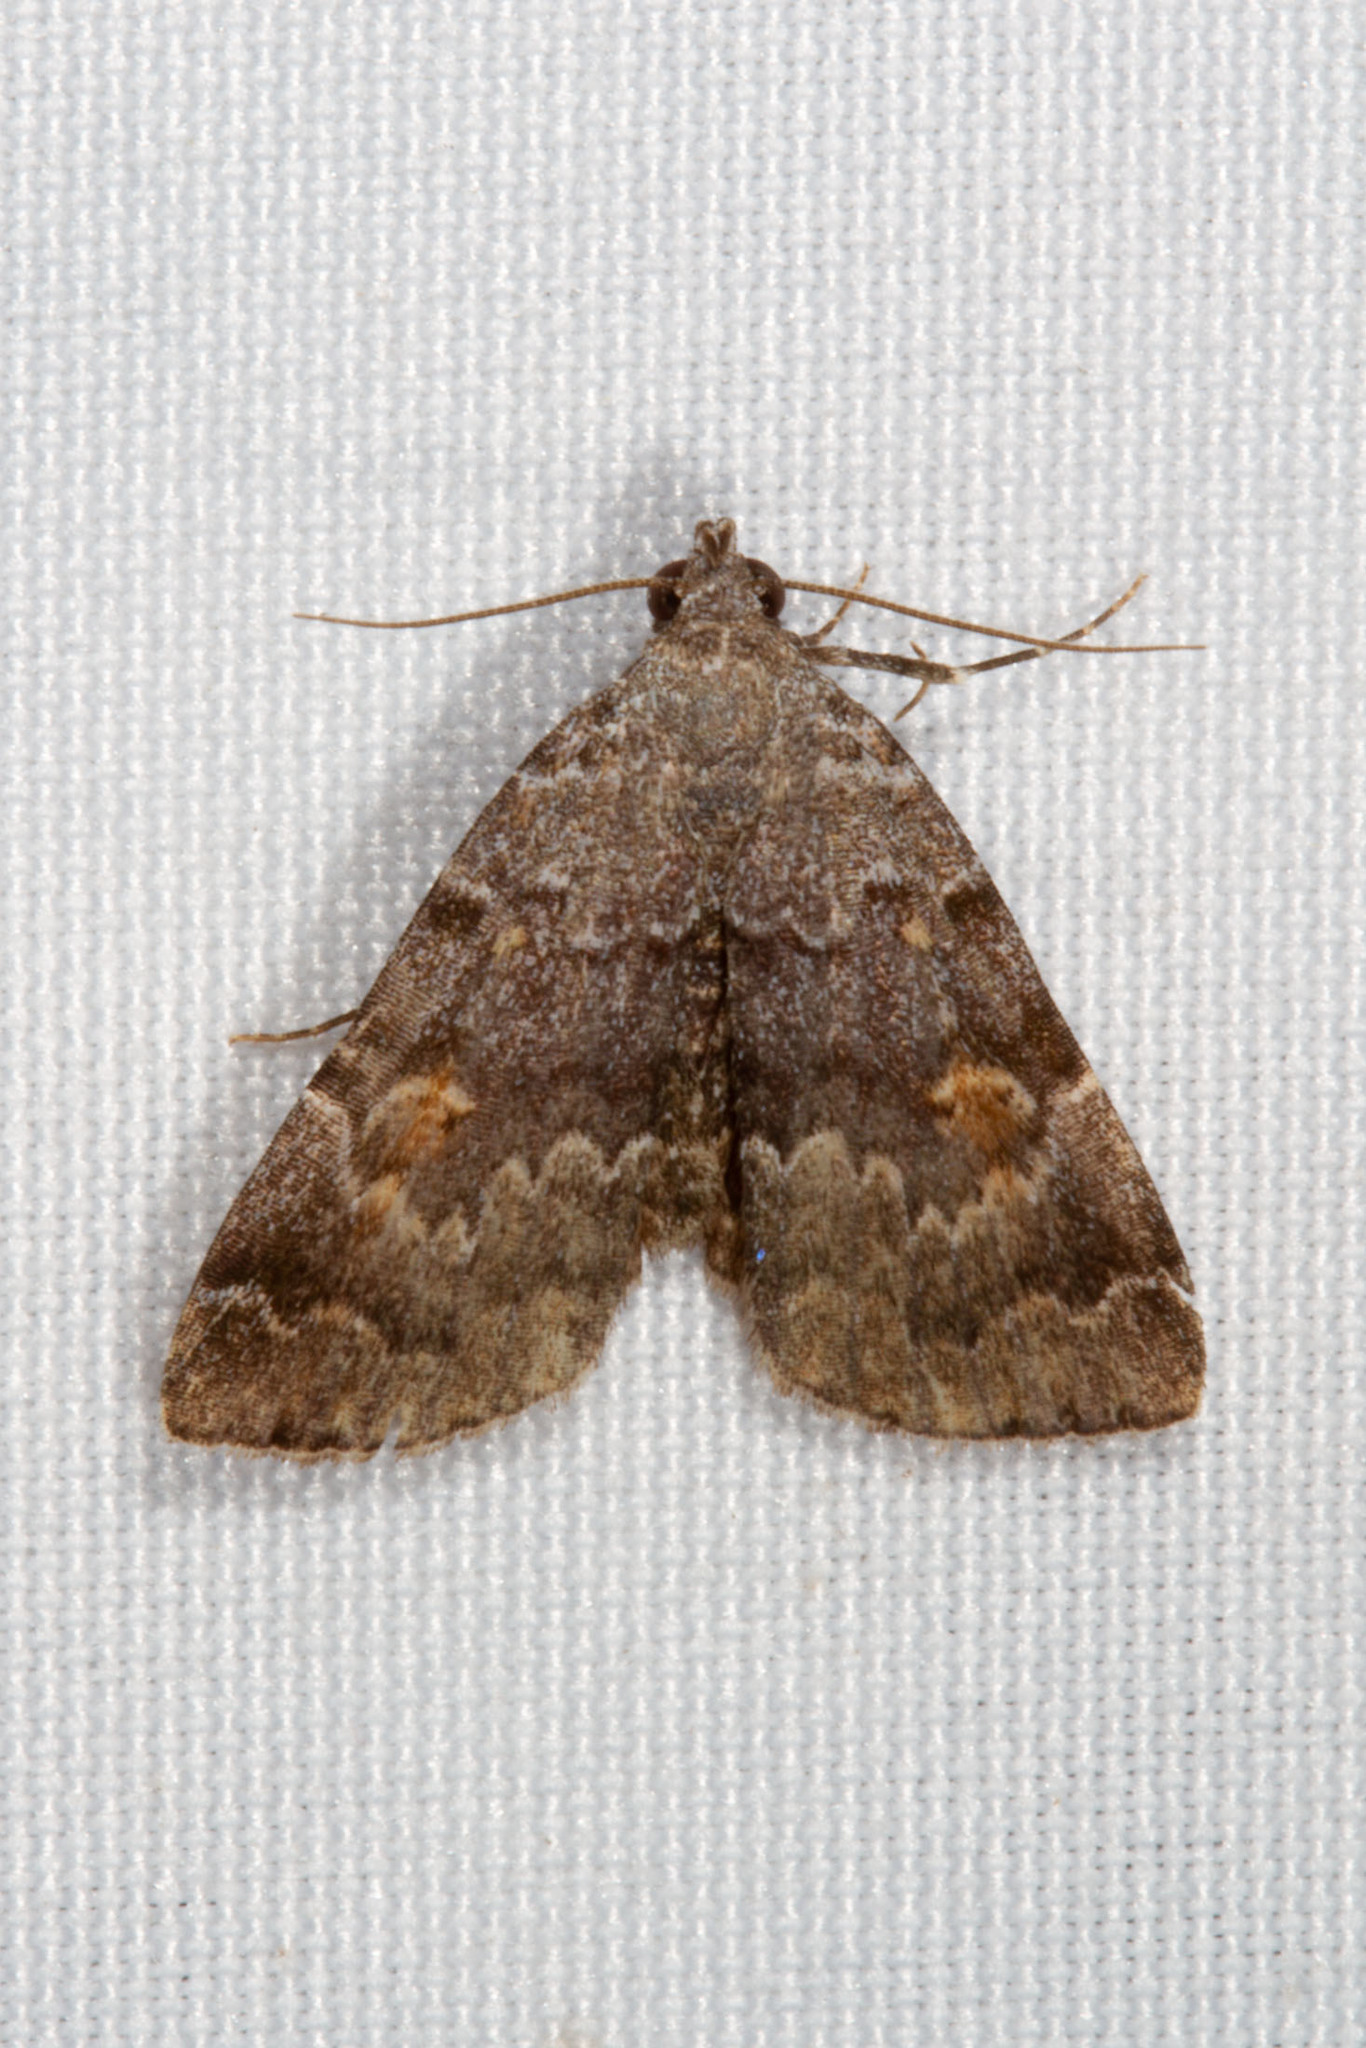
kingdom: Animalia
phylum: Arthropoda
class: Insecta
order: Lepidoptera
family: Erebidae
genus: Idia
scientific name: Idia americalis
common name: American idia moth
